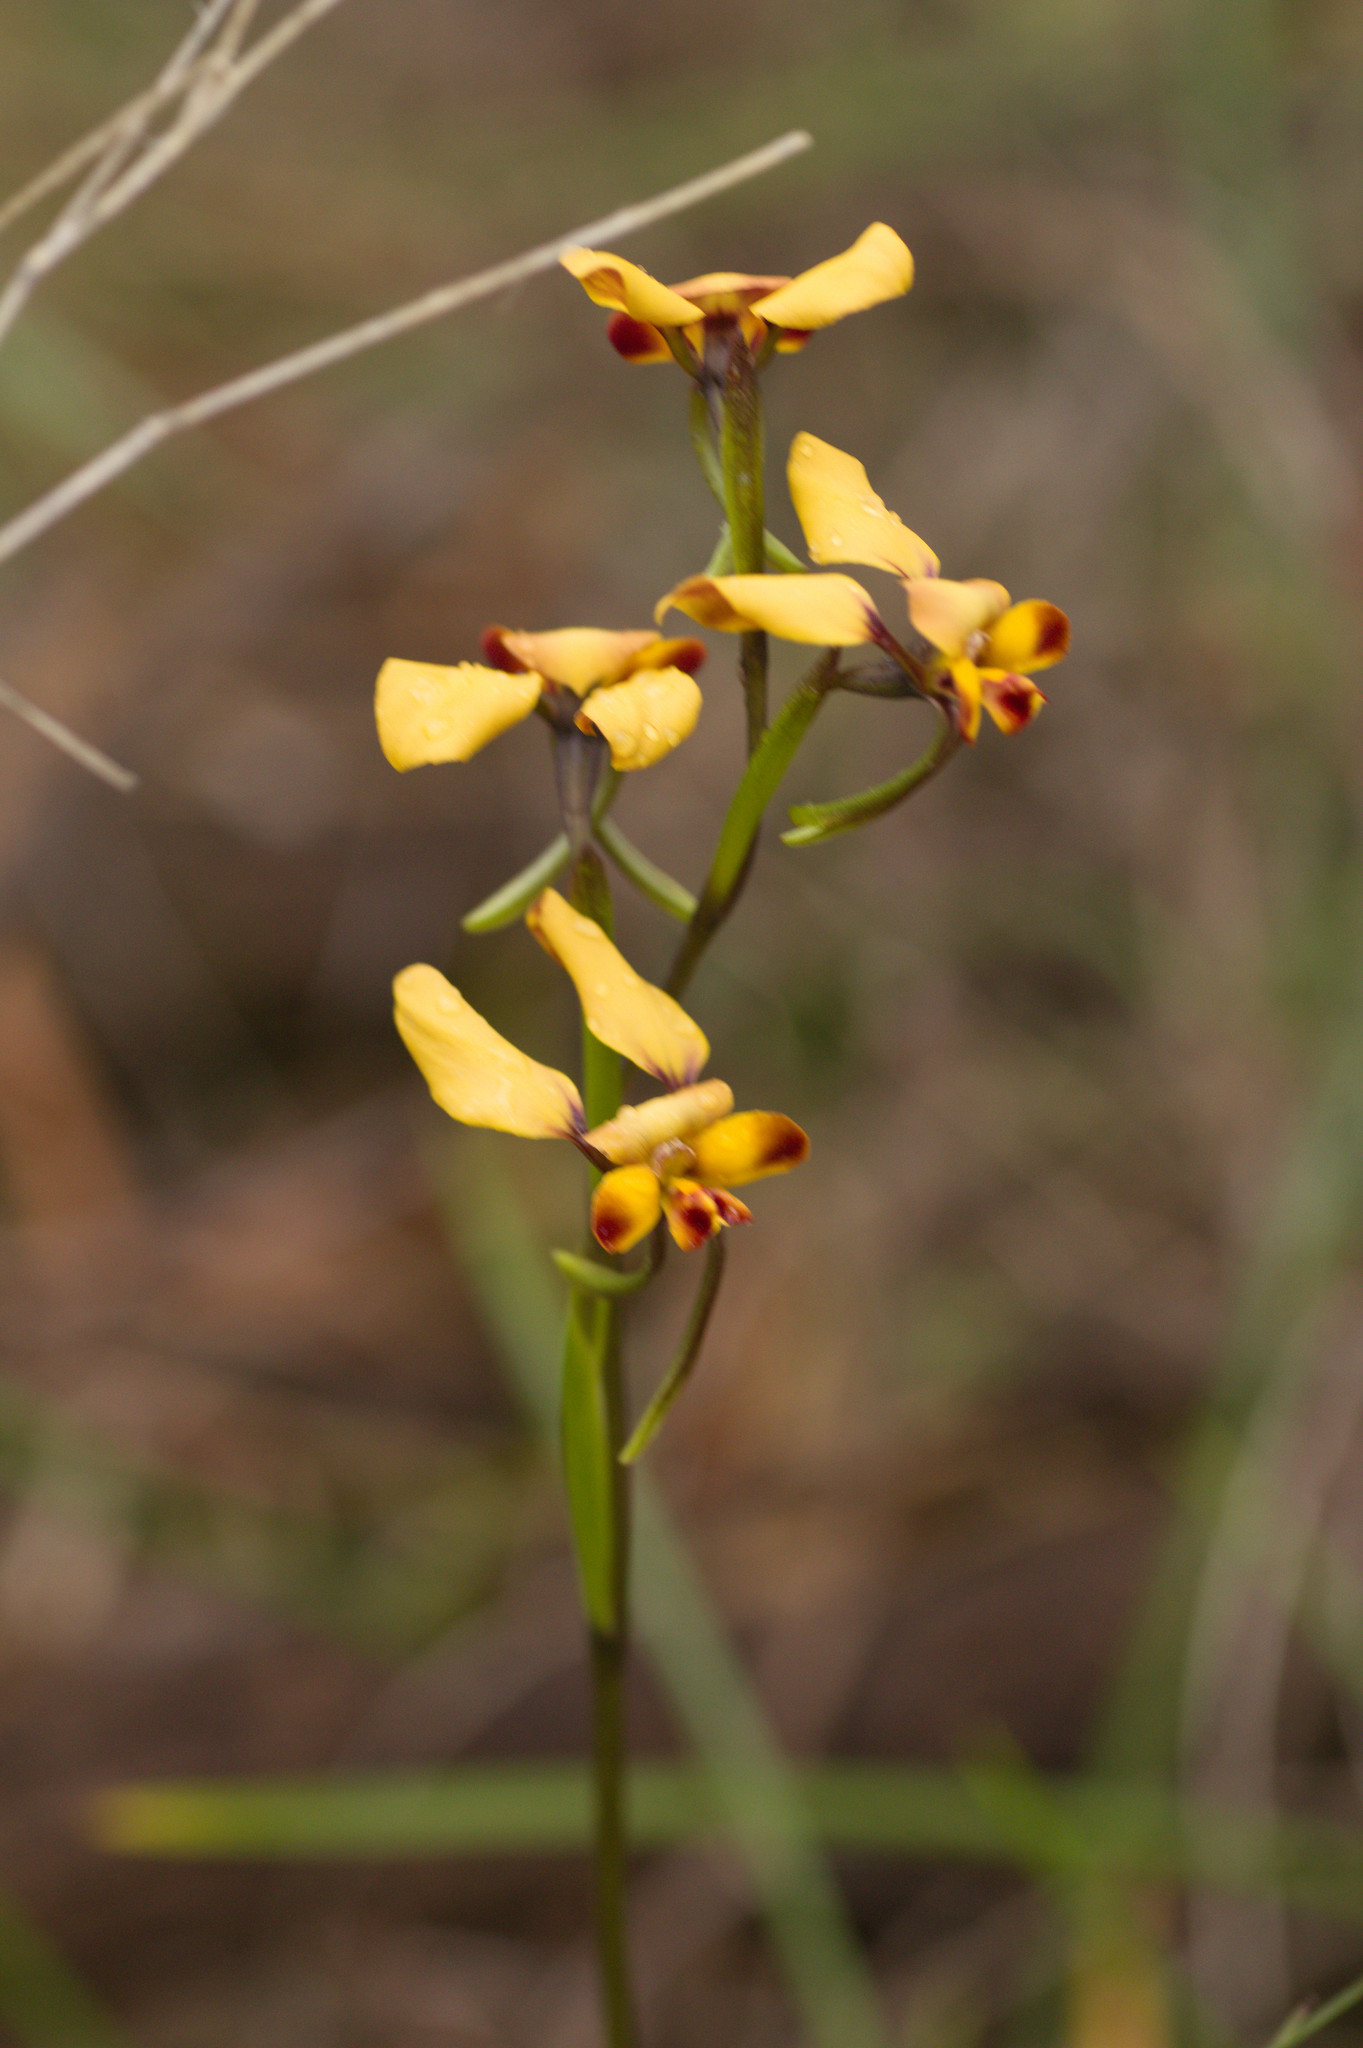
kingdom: Plantae
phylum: Tracheophyta
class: Liliopsida
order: Asparagales
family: Orchidaceae
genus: Diuris
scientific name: Diuris porrifolia
